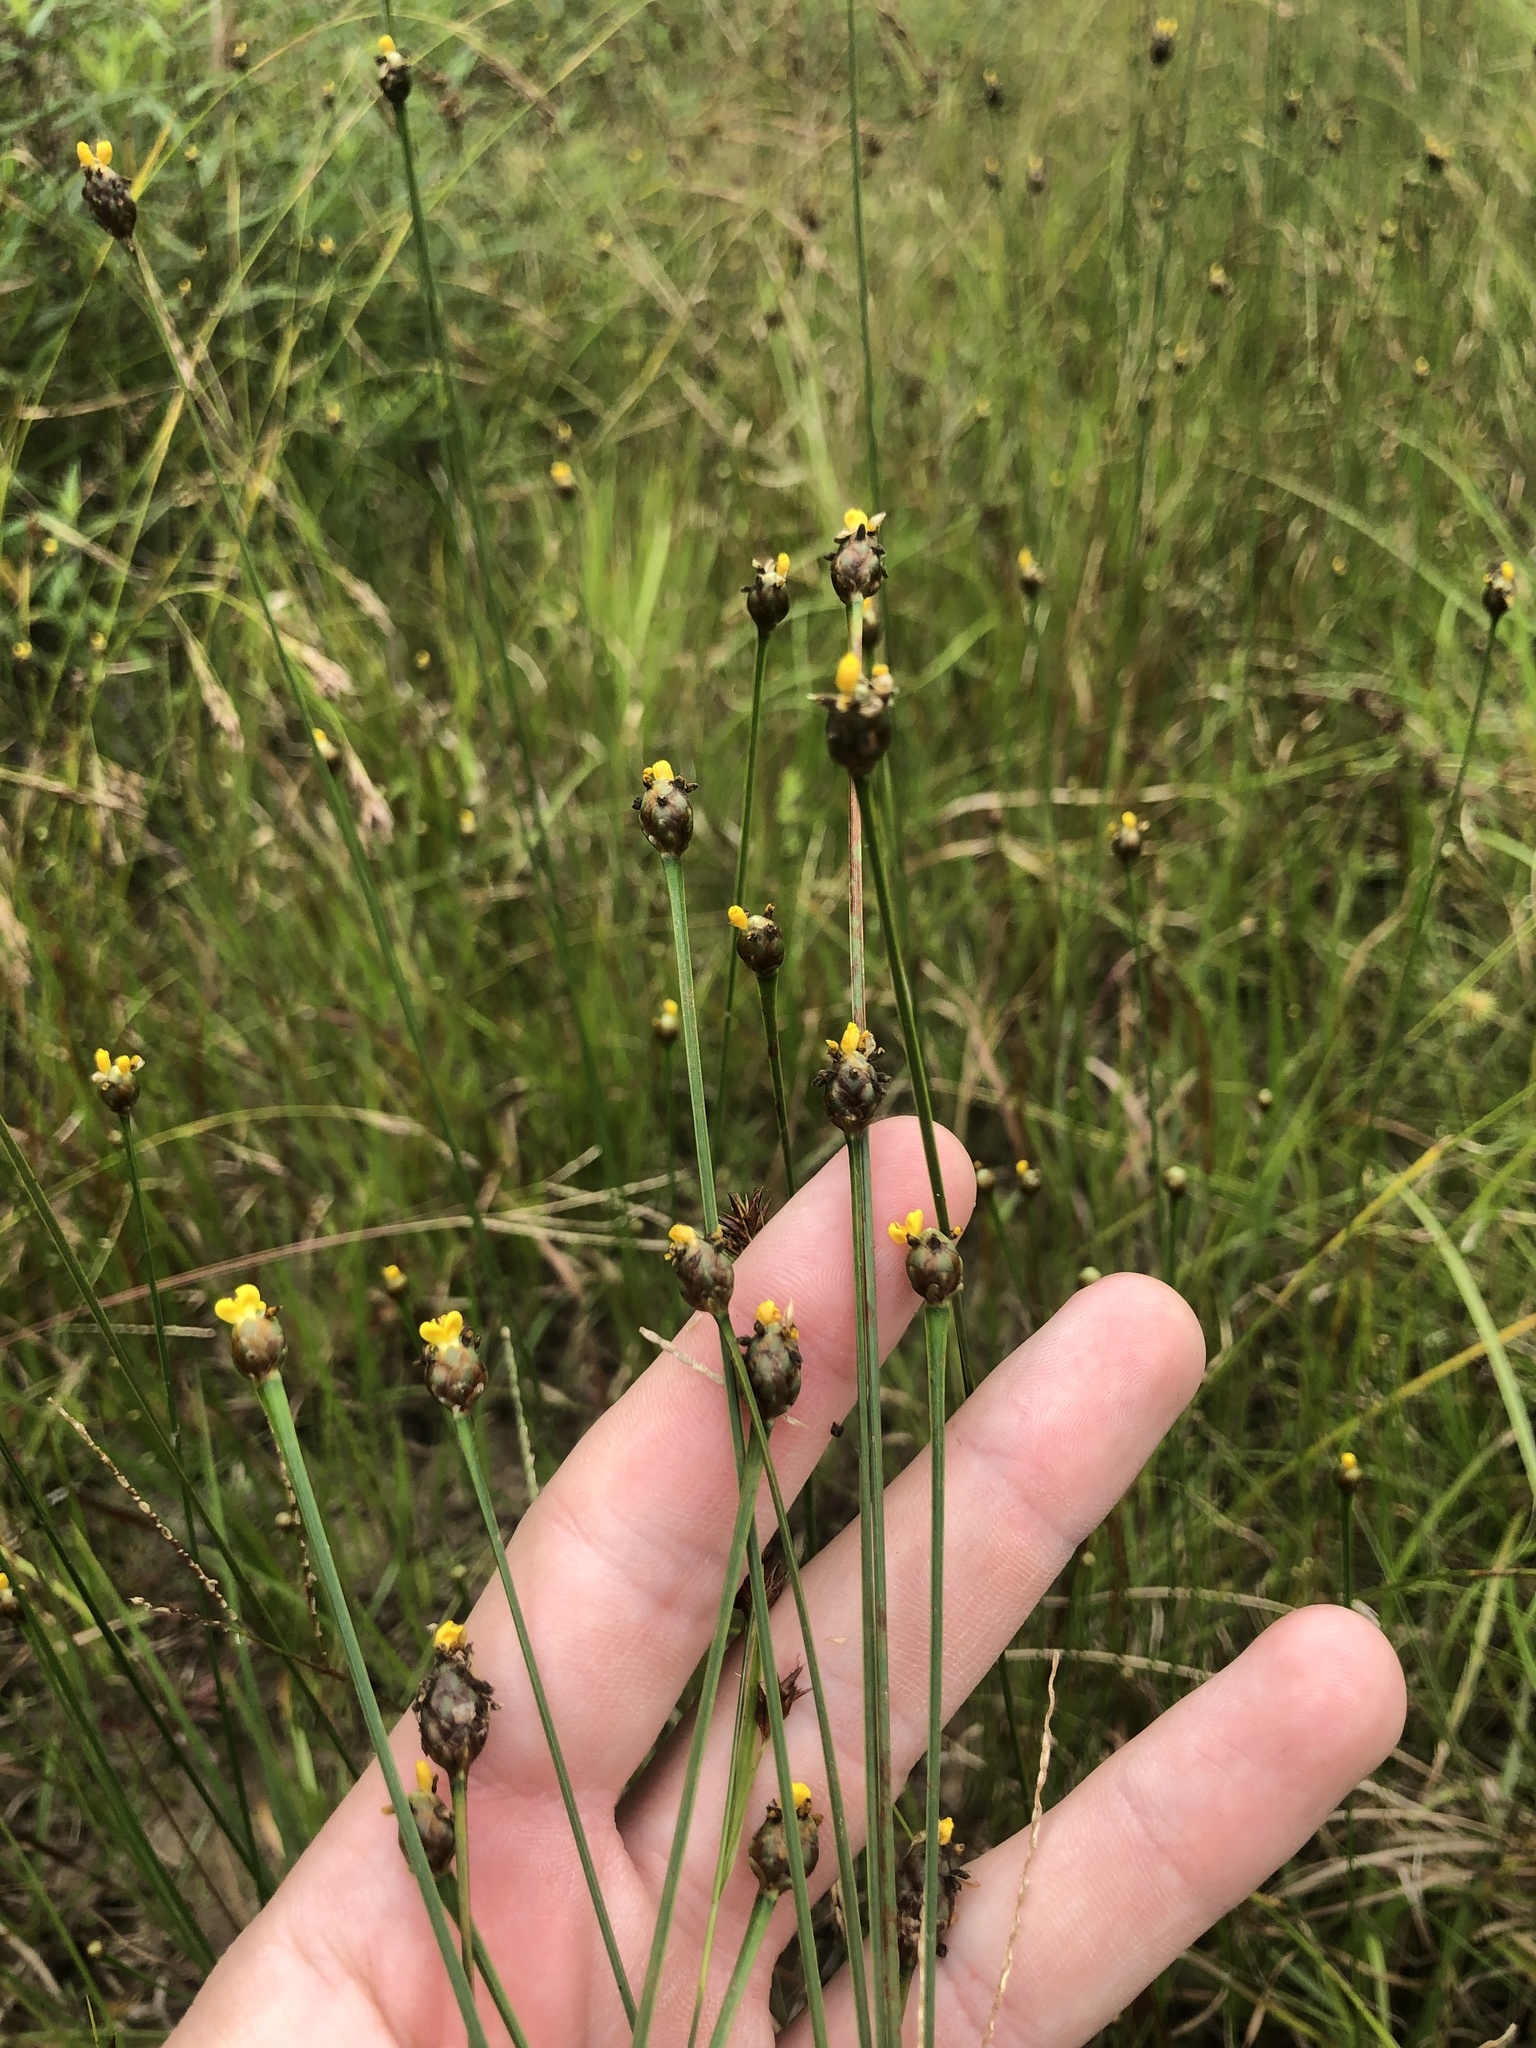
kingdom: Plantae
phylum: Tracheophyta
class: Liliopsida
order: Poales
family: Xyridaceae
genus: Xyris
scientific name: Xyris jupicai
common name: Richard's yelloweyed grass
